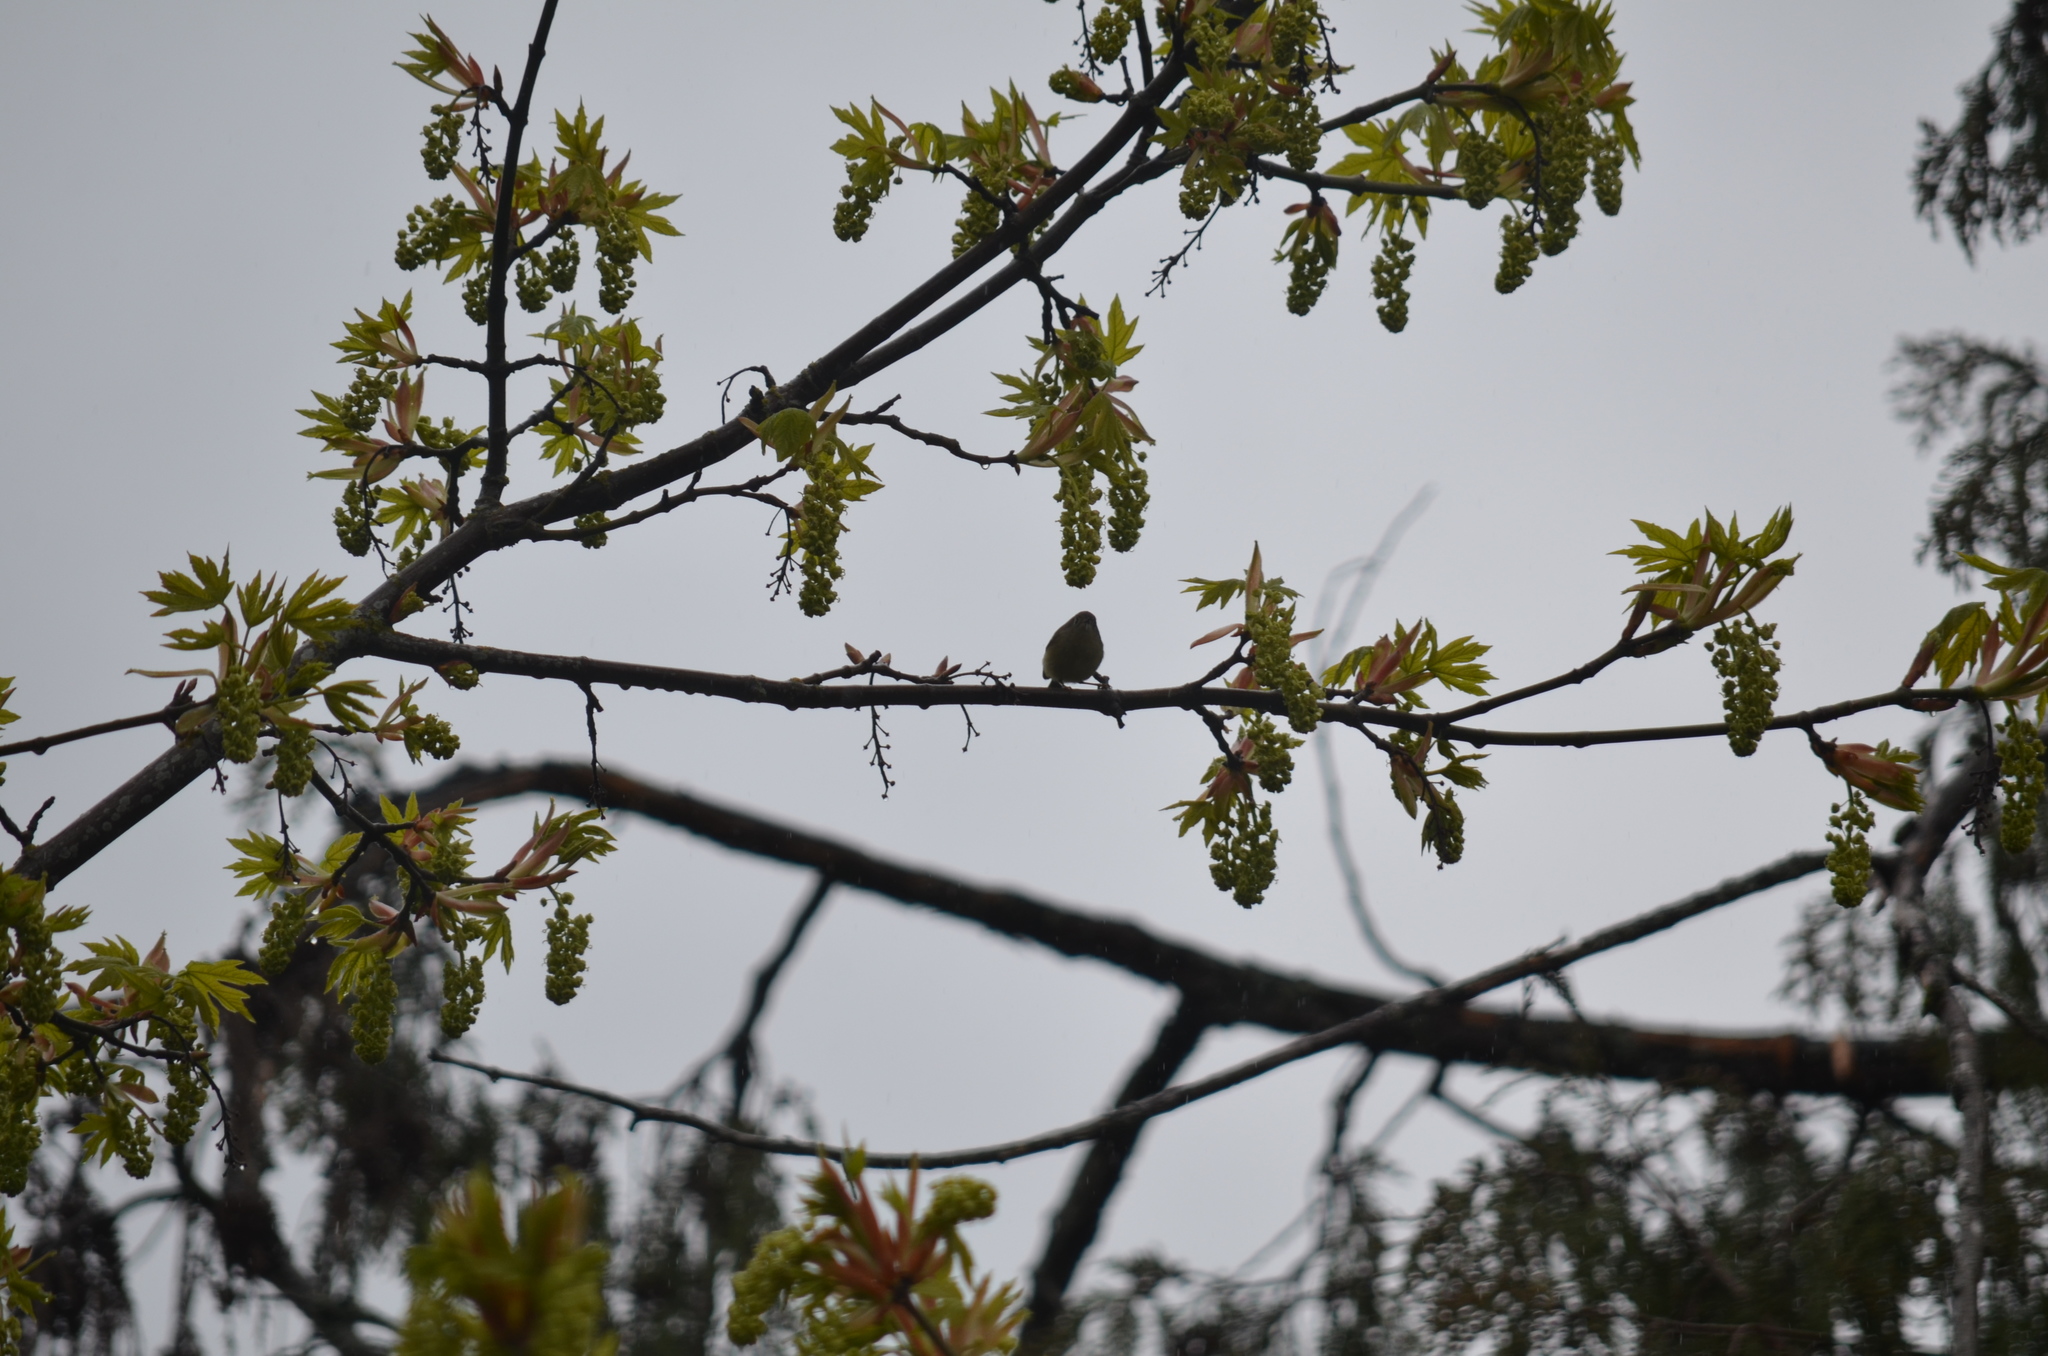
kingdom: Animalia
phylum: Chordata
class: Aves
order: Passeriformes
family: Regulidae
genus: Regulus
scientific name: Regulus calendula
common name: Ruby-crowned kinglet
